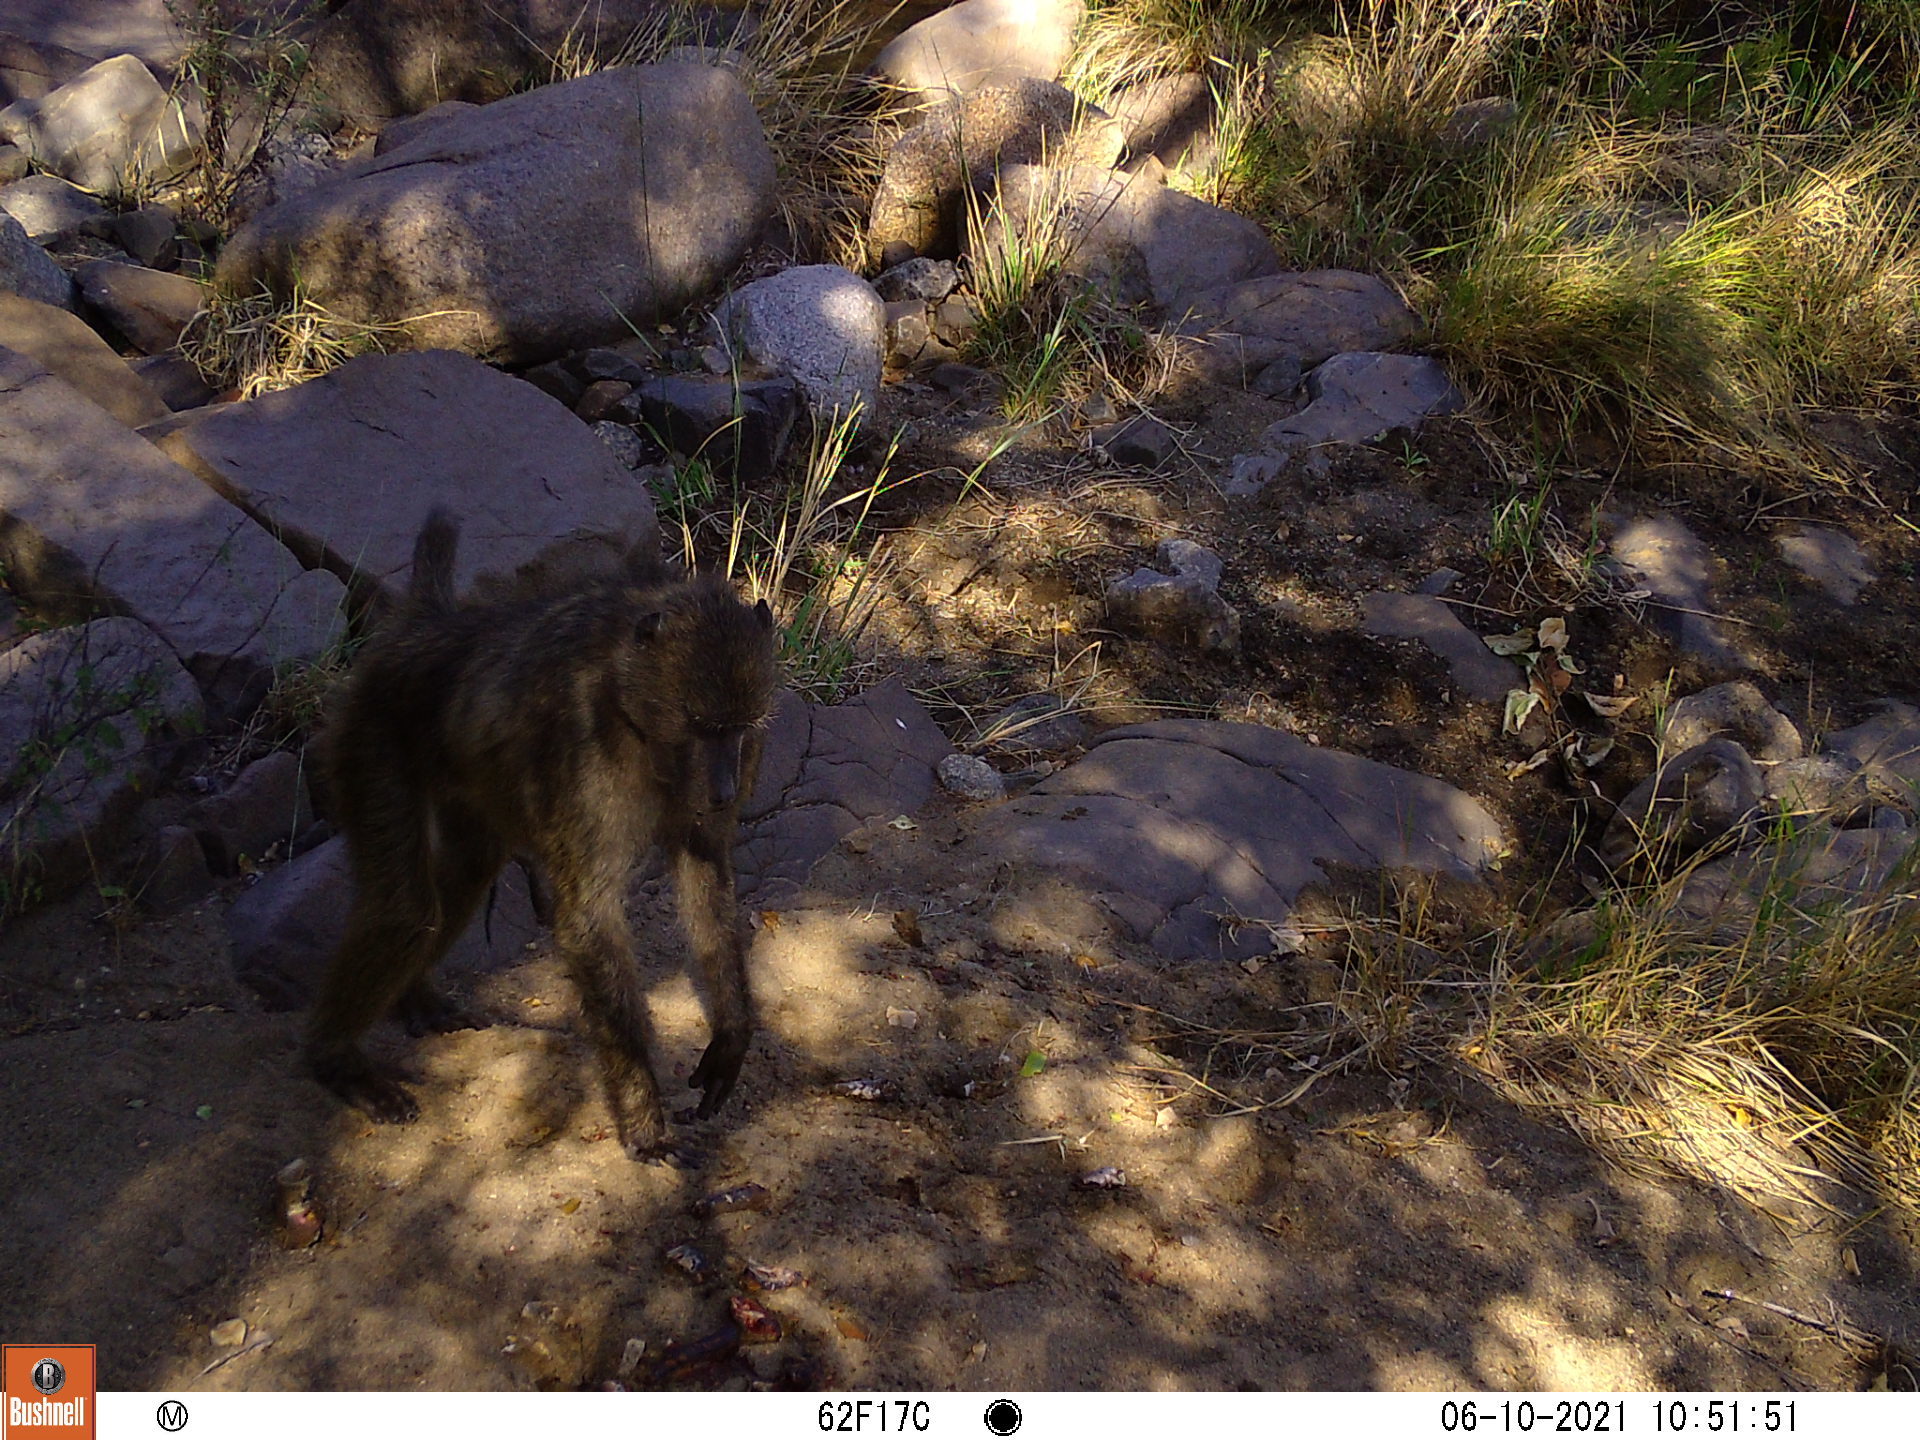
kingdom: Animalia
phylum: Chordata
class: Mammalia
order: Primates
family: Cercopithecidae
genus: Papio
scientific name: Papio ursinus
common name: Chacma baboon
